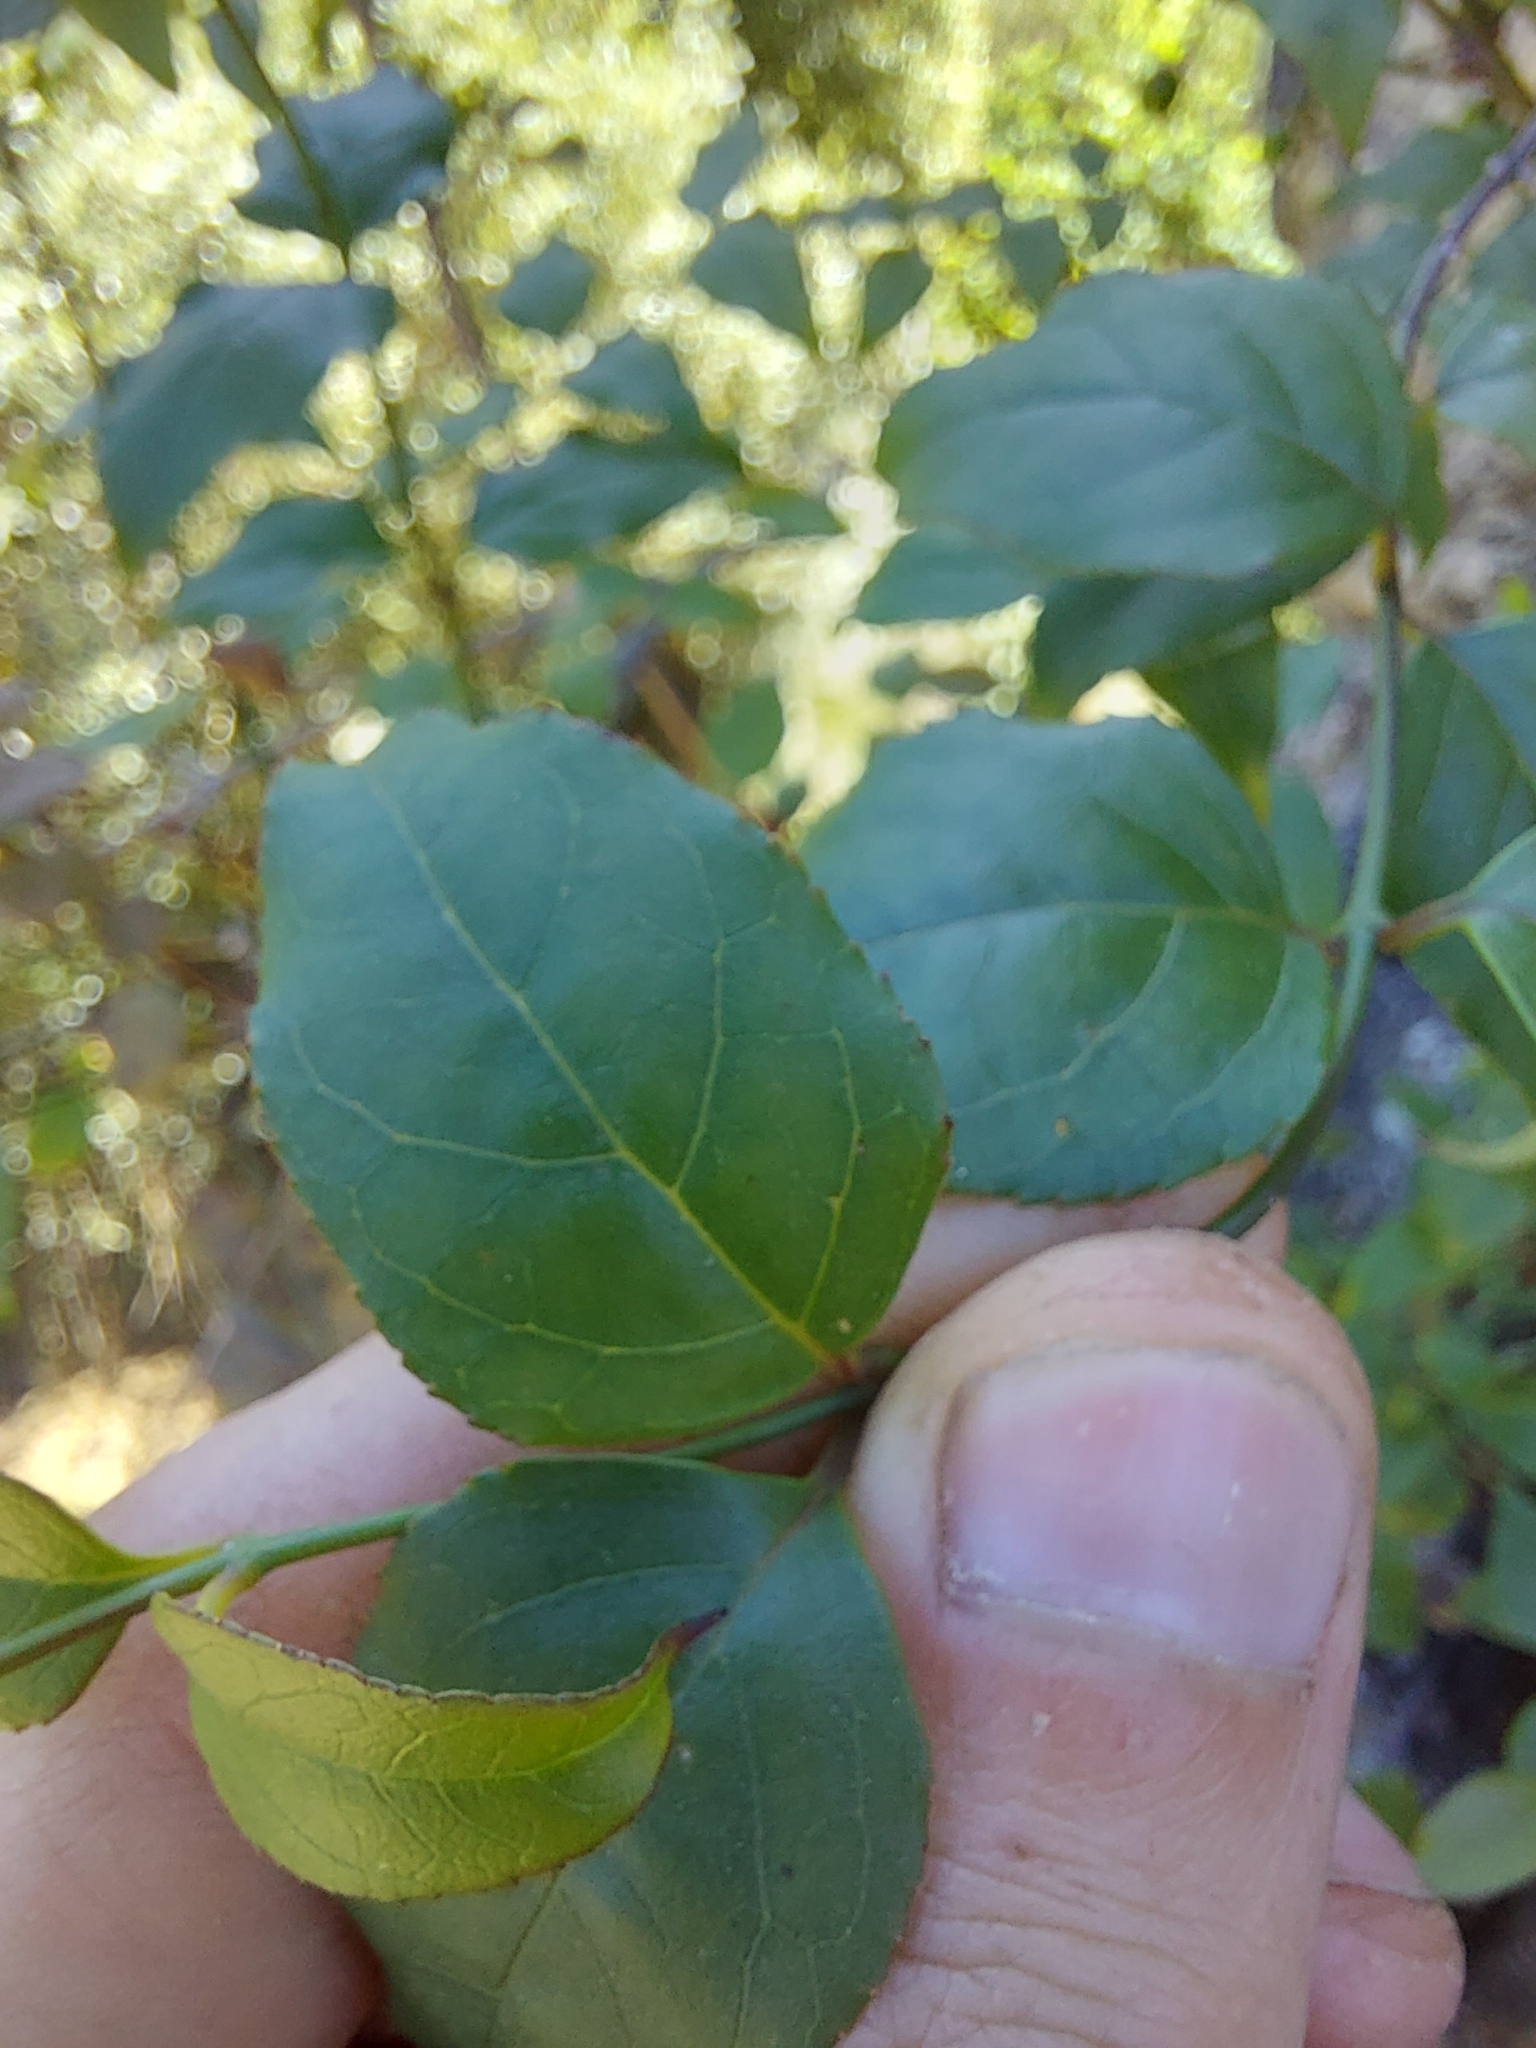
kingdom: Plantae
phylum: Tracheophyta
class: Magnoliopsida
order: Lamiales
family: Stilbaceae
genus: Halleria
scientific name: Halleria lucida
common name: Tree fuschia
